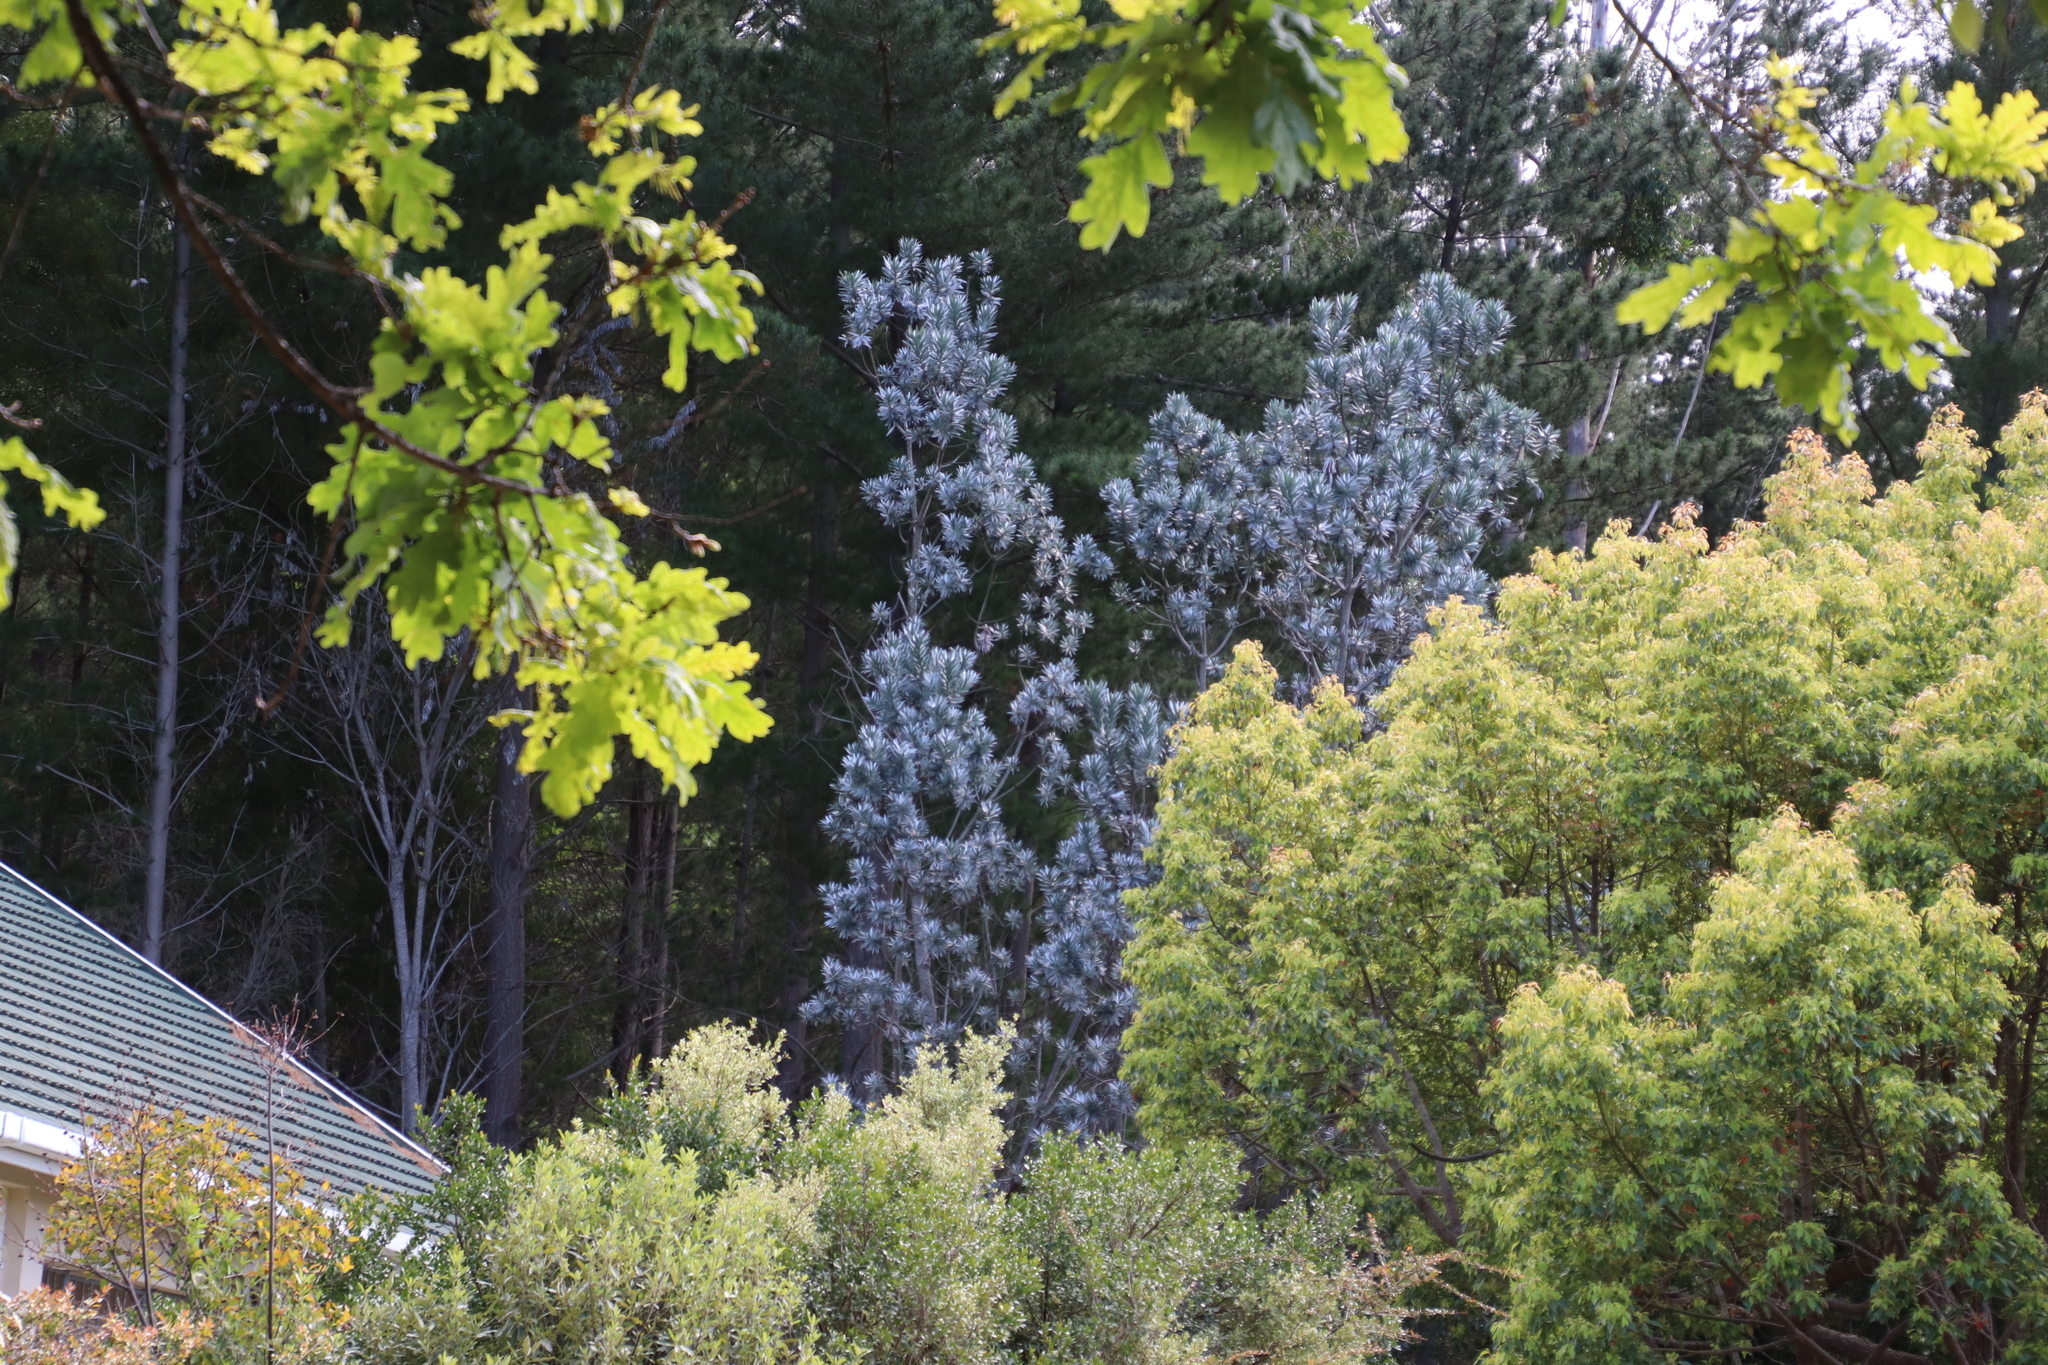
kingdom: Plantae
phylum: Tracheophyta
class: Magnoliopsida
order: Proteales
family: Proteaceae
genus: Leucadendron
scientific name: Leucadendron argenteum
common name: Cape silver tree
